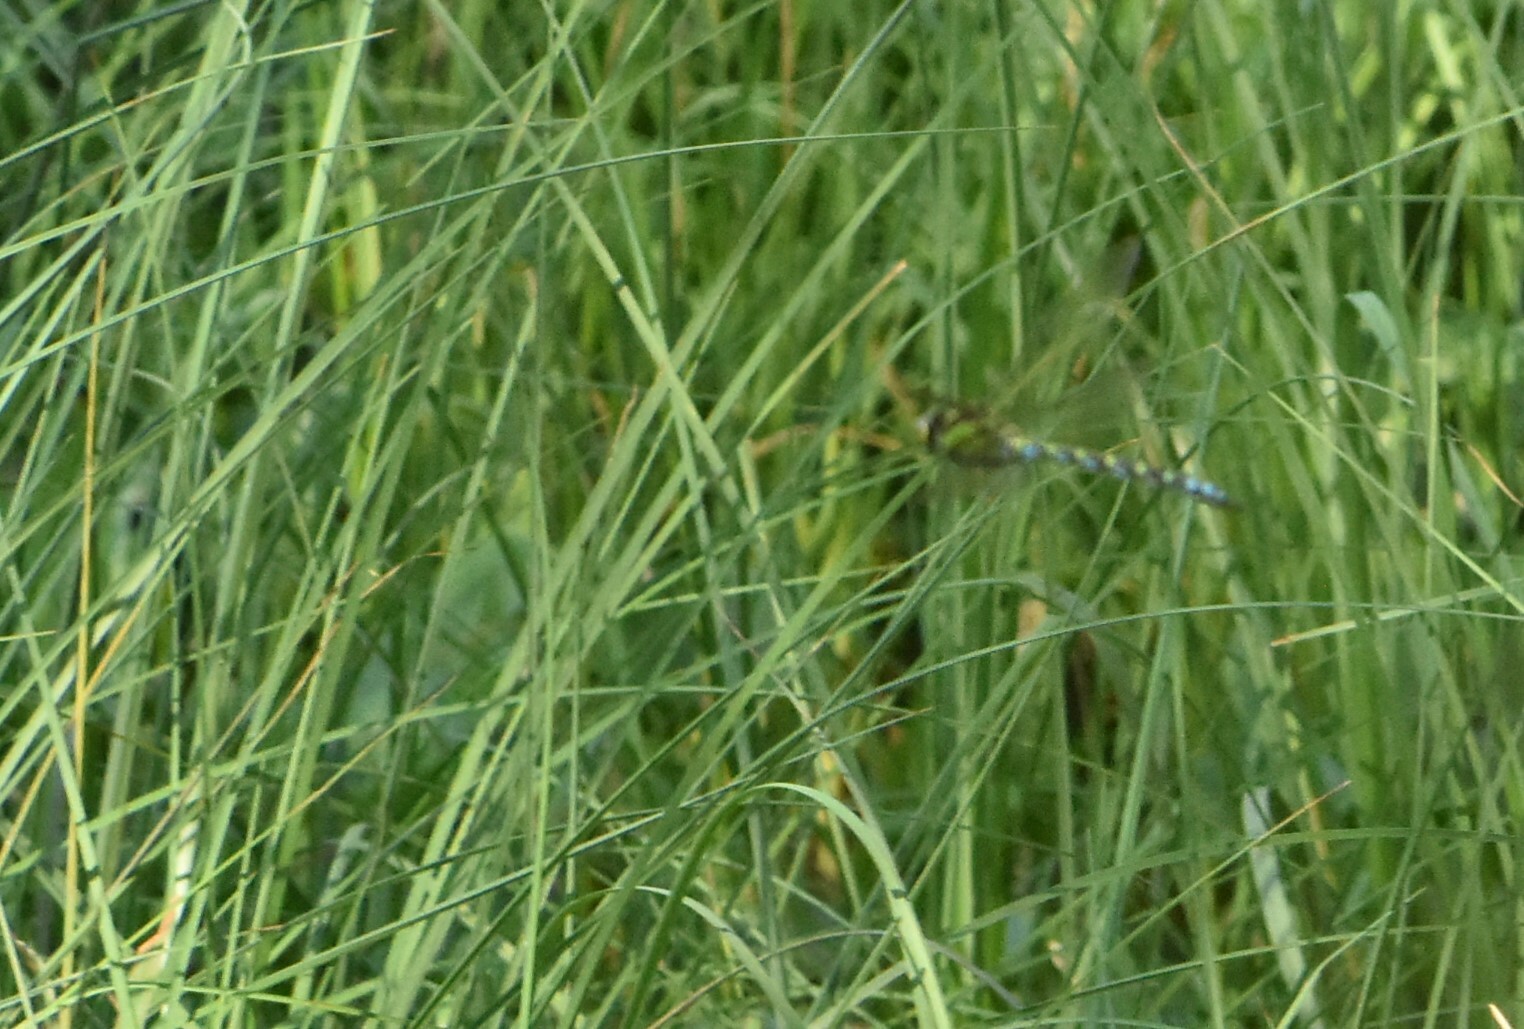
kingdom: Animalia
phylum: Arthropoda
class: Insecta
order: Odonata
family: Aeshnidae
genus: Aeshna
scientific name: Aeshna cyanea
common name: Southern hawker
